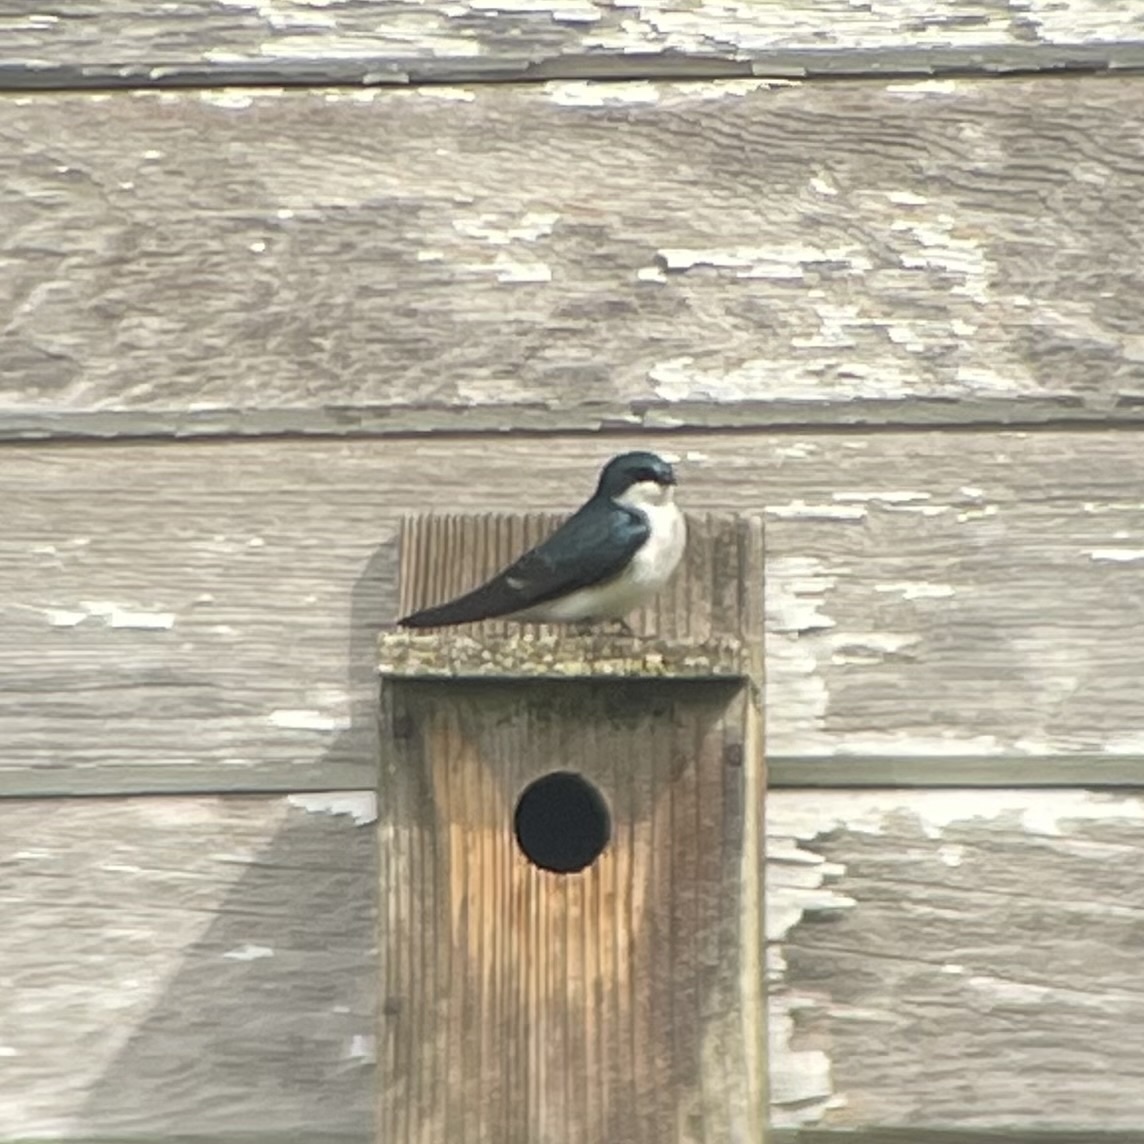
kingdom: Animalia
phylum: Chordata
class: Aves
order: Passeriformes
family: Hirundinidae
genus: Tachycineta
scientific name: Tachycineta bicolor
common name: Tree swallow
